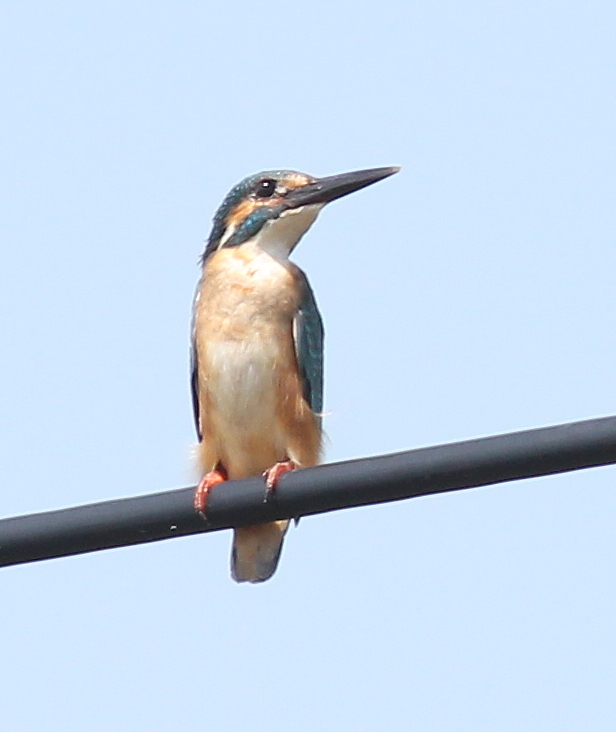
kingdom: Animalia
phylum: Chordata
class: Aves
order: Coraciiformes
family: Alcedinidae
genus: Alcedo
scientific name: Alcedo atthis
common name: Common kingfisher
